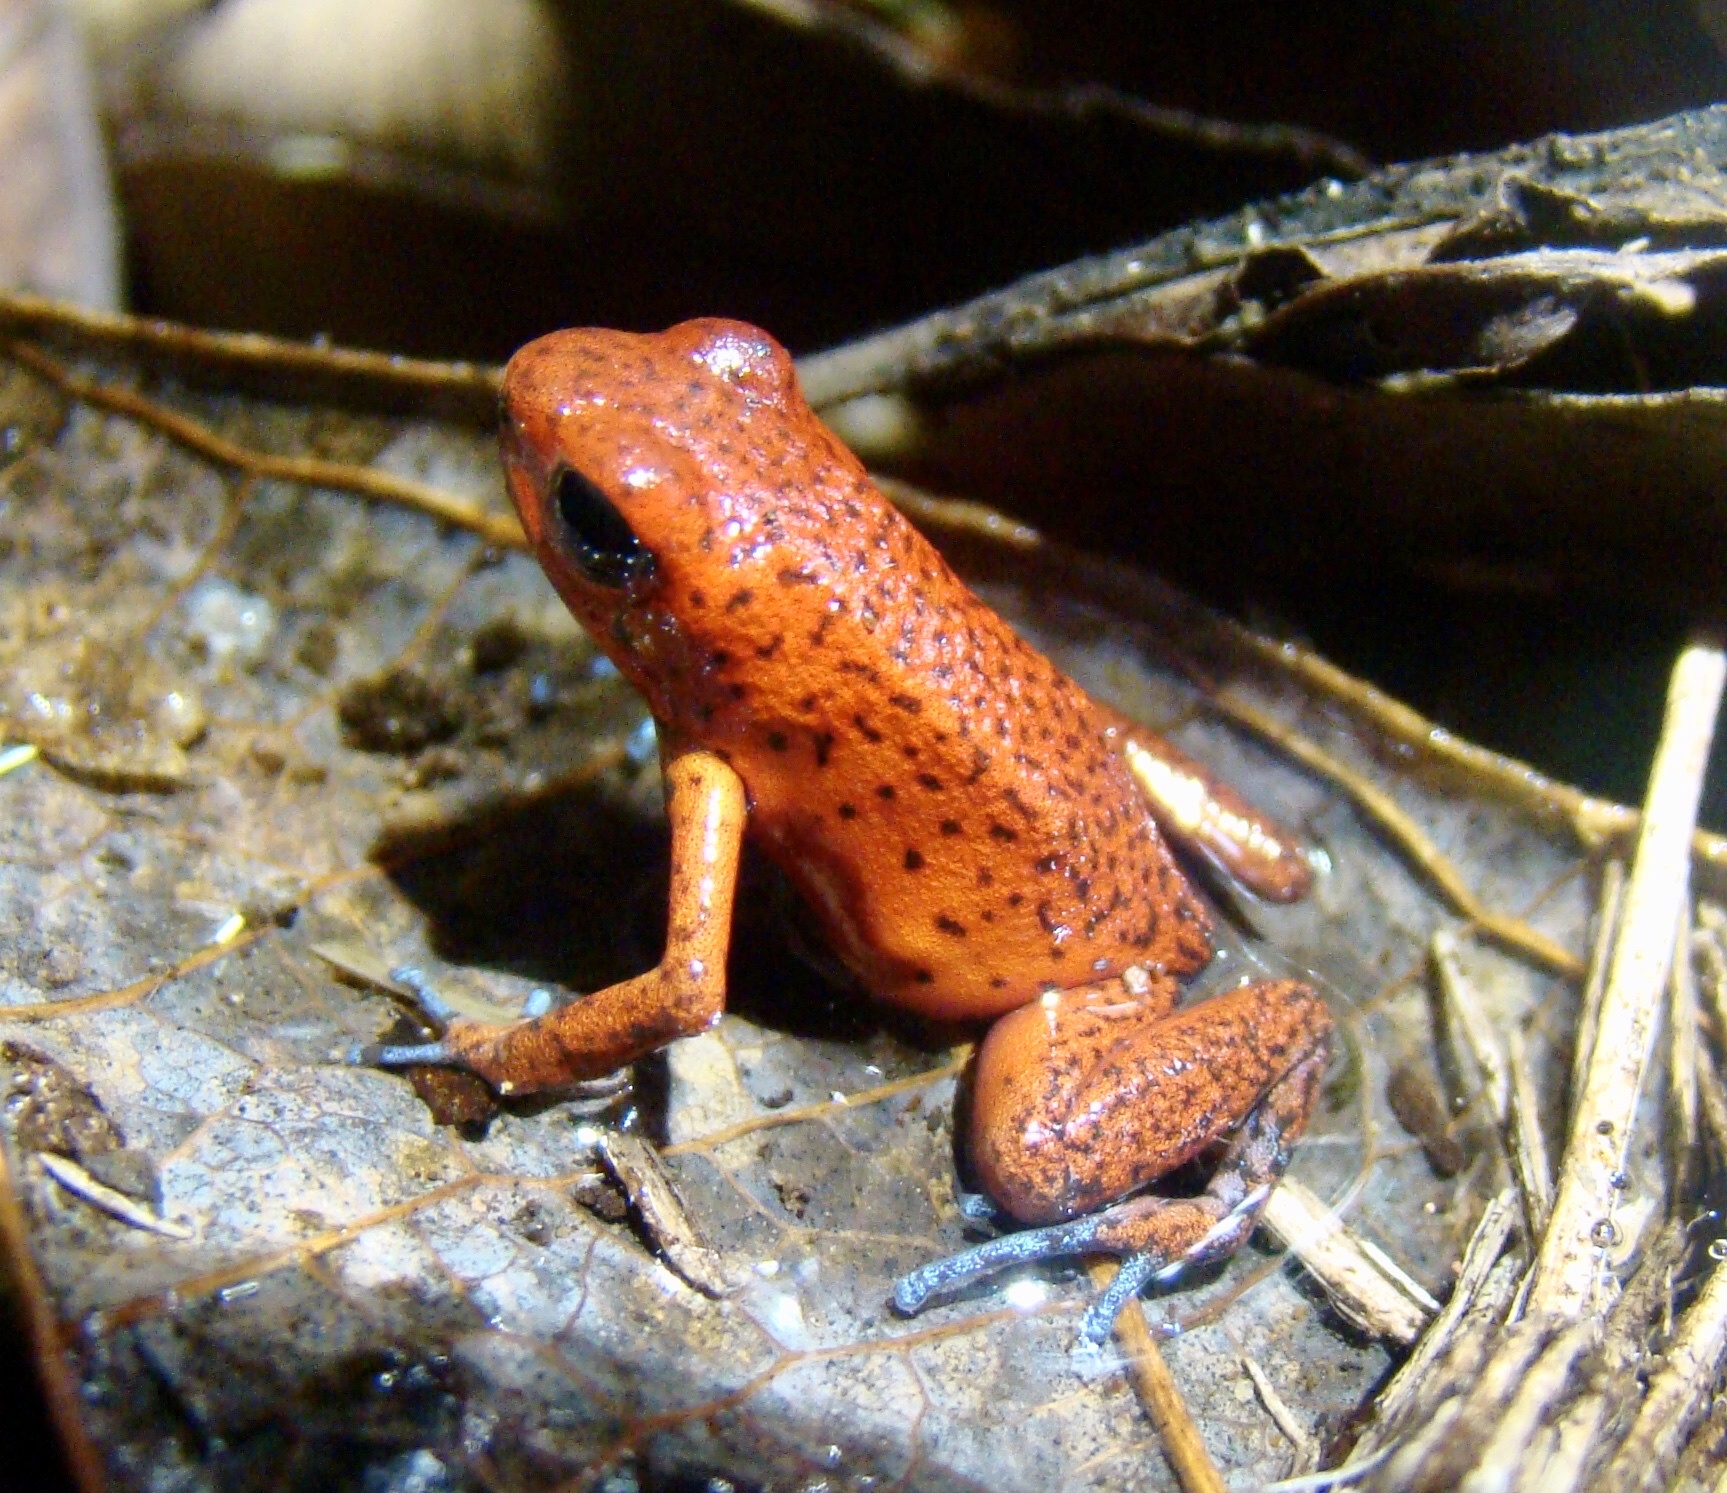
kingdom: Animalia
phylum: Chordata
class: Amphibia
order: Anura
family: Dendrobatidae
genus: Oophaga
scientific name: Oophaga pumilio
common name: Flaming poison frog
